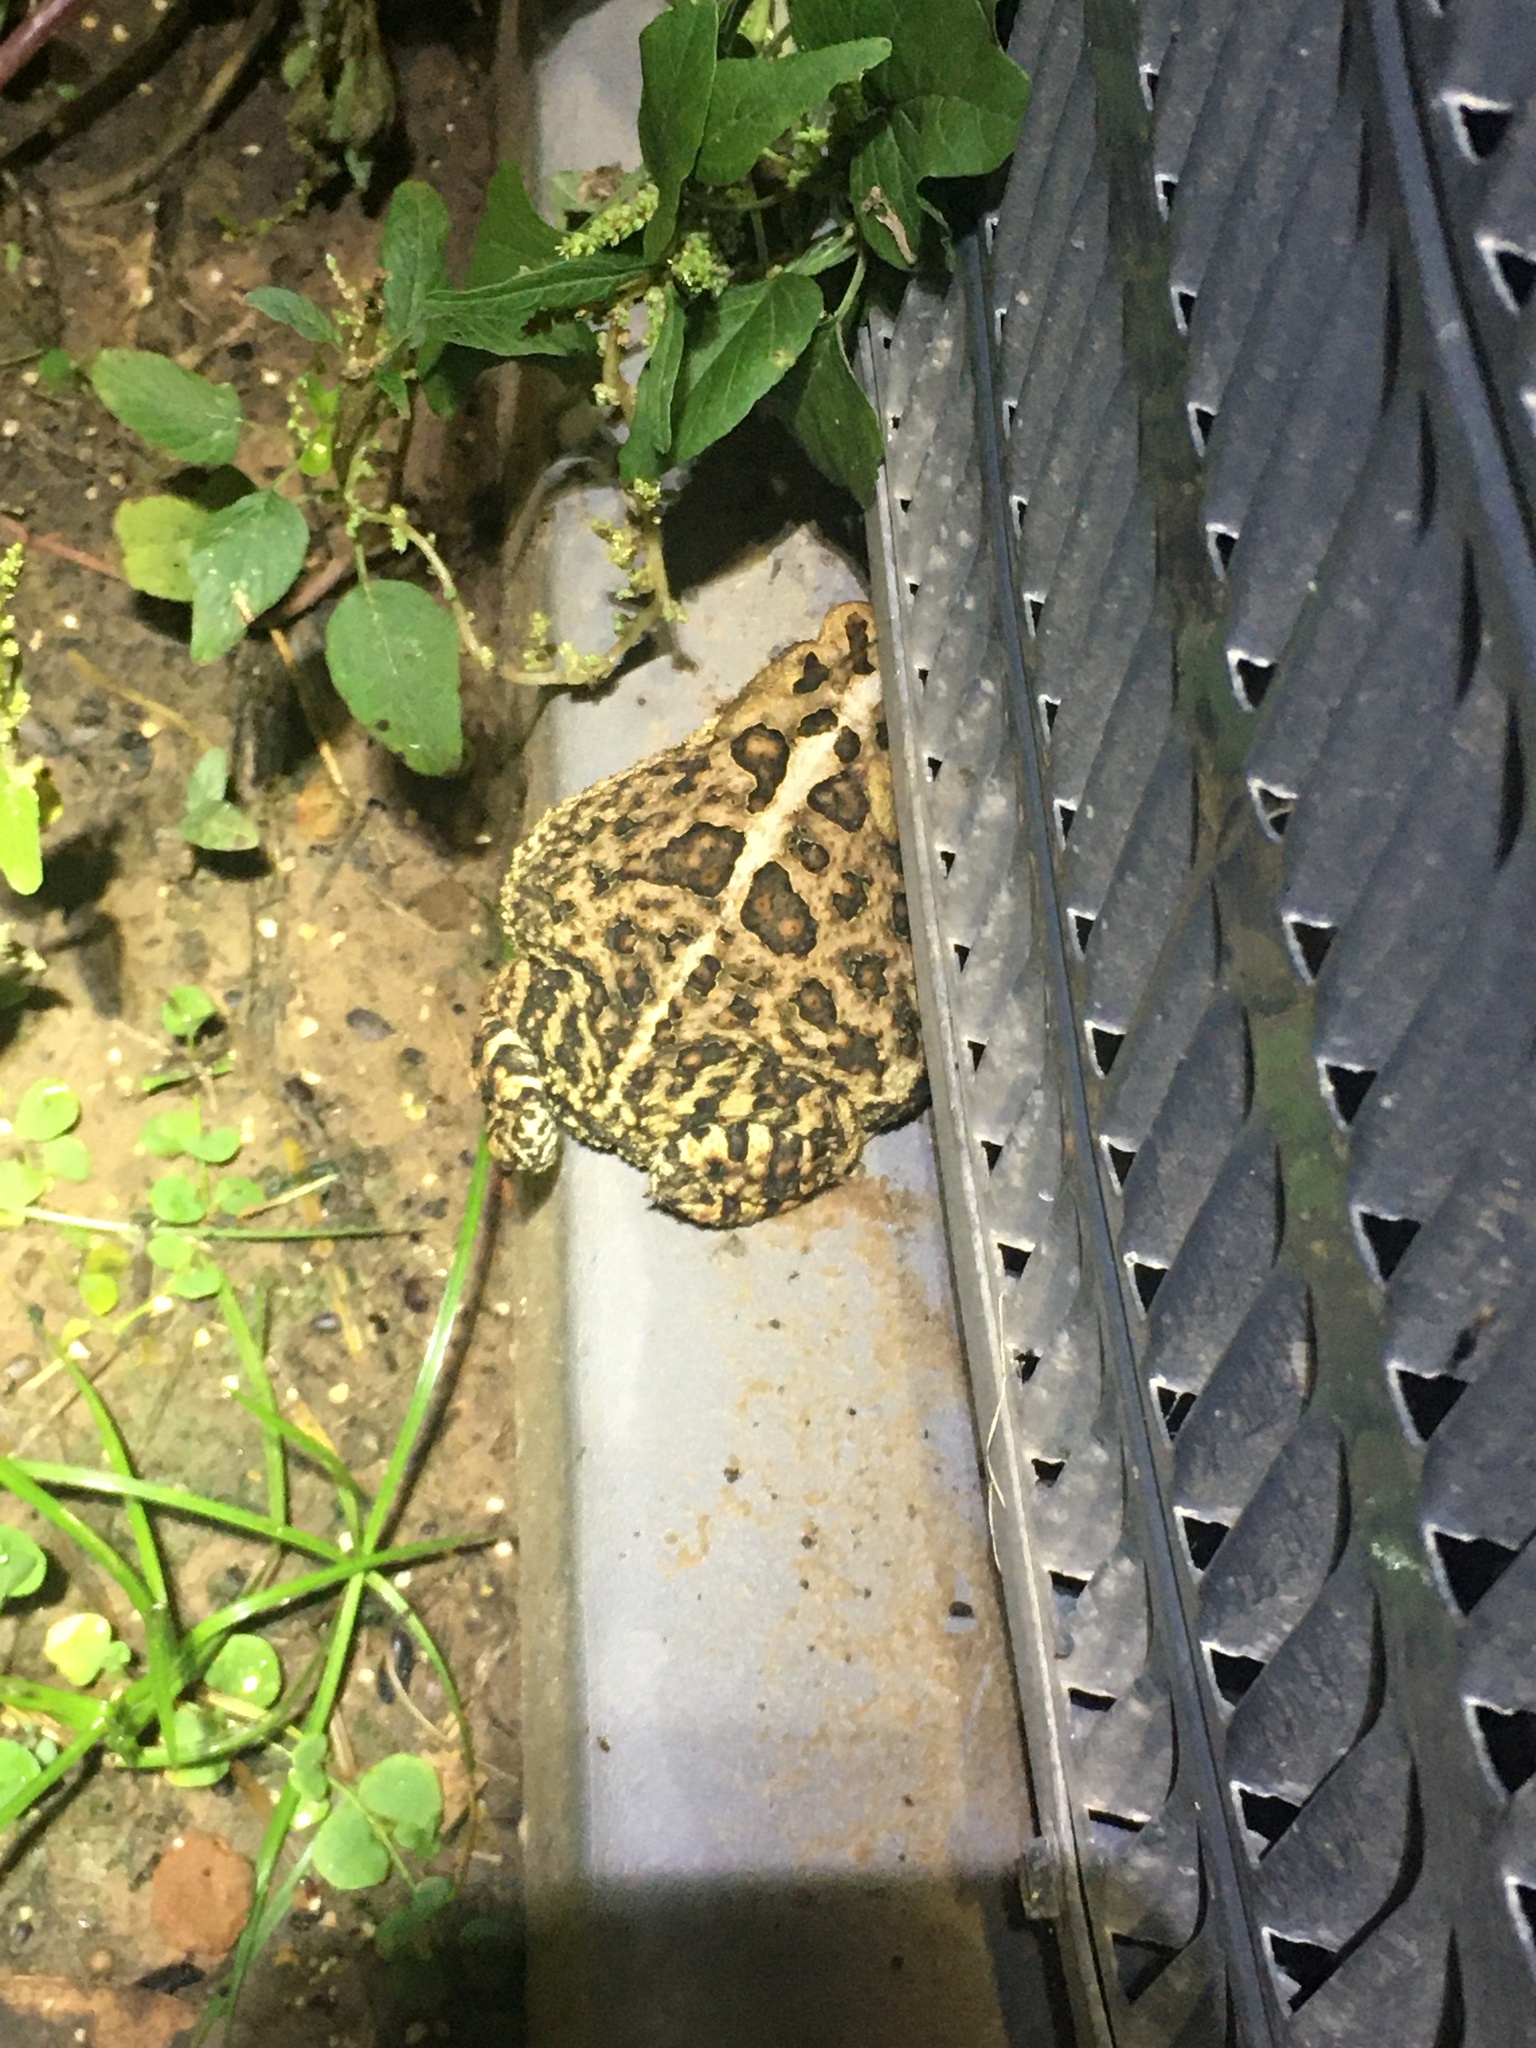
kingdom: Animalia
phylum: Chordata
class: Amphibia
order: Anura
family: Bufonidae
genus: Anaxyrus
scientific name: Anaxyrus terrestris
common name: Southern toad
